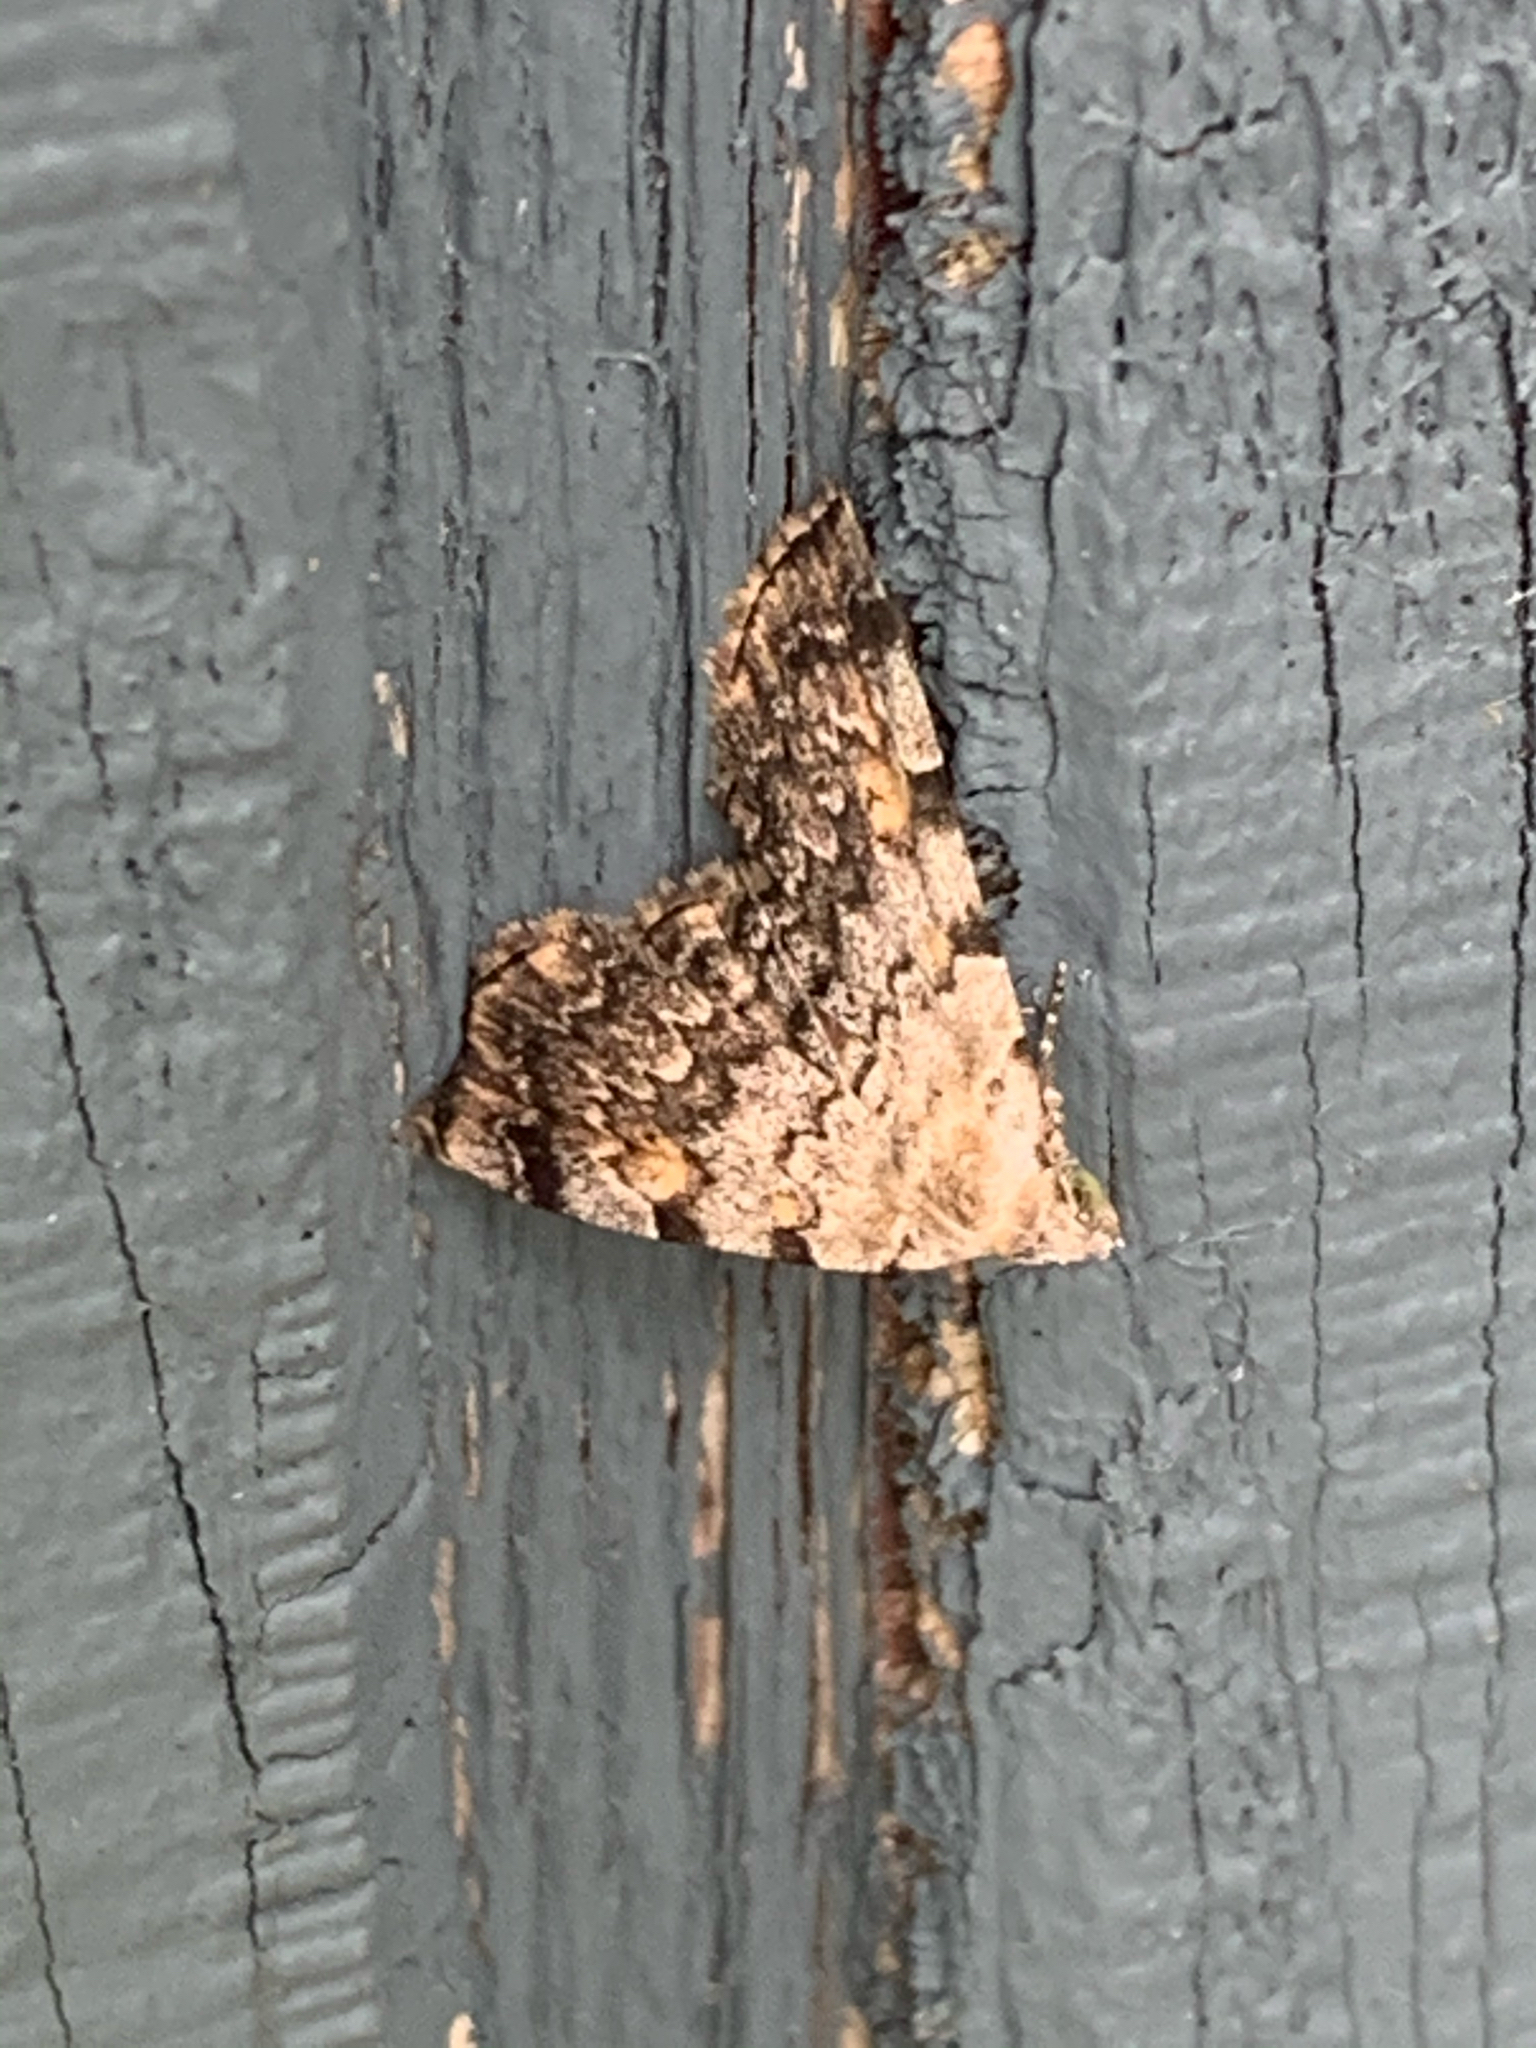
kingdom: Animalia
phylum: Arthropoda
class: Insecta
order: Lepidoptera
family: Erebidae
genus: Idia
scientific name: Idia americalis
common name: American idia moth
